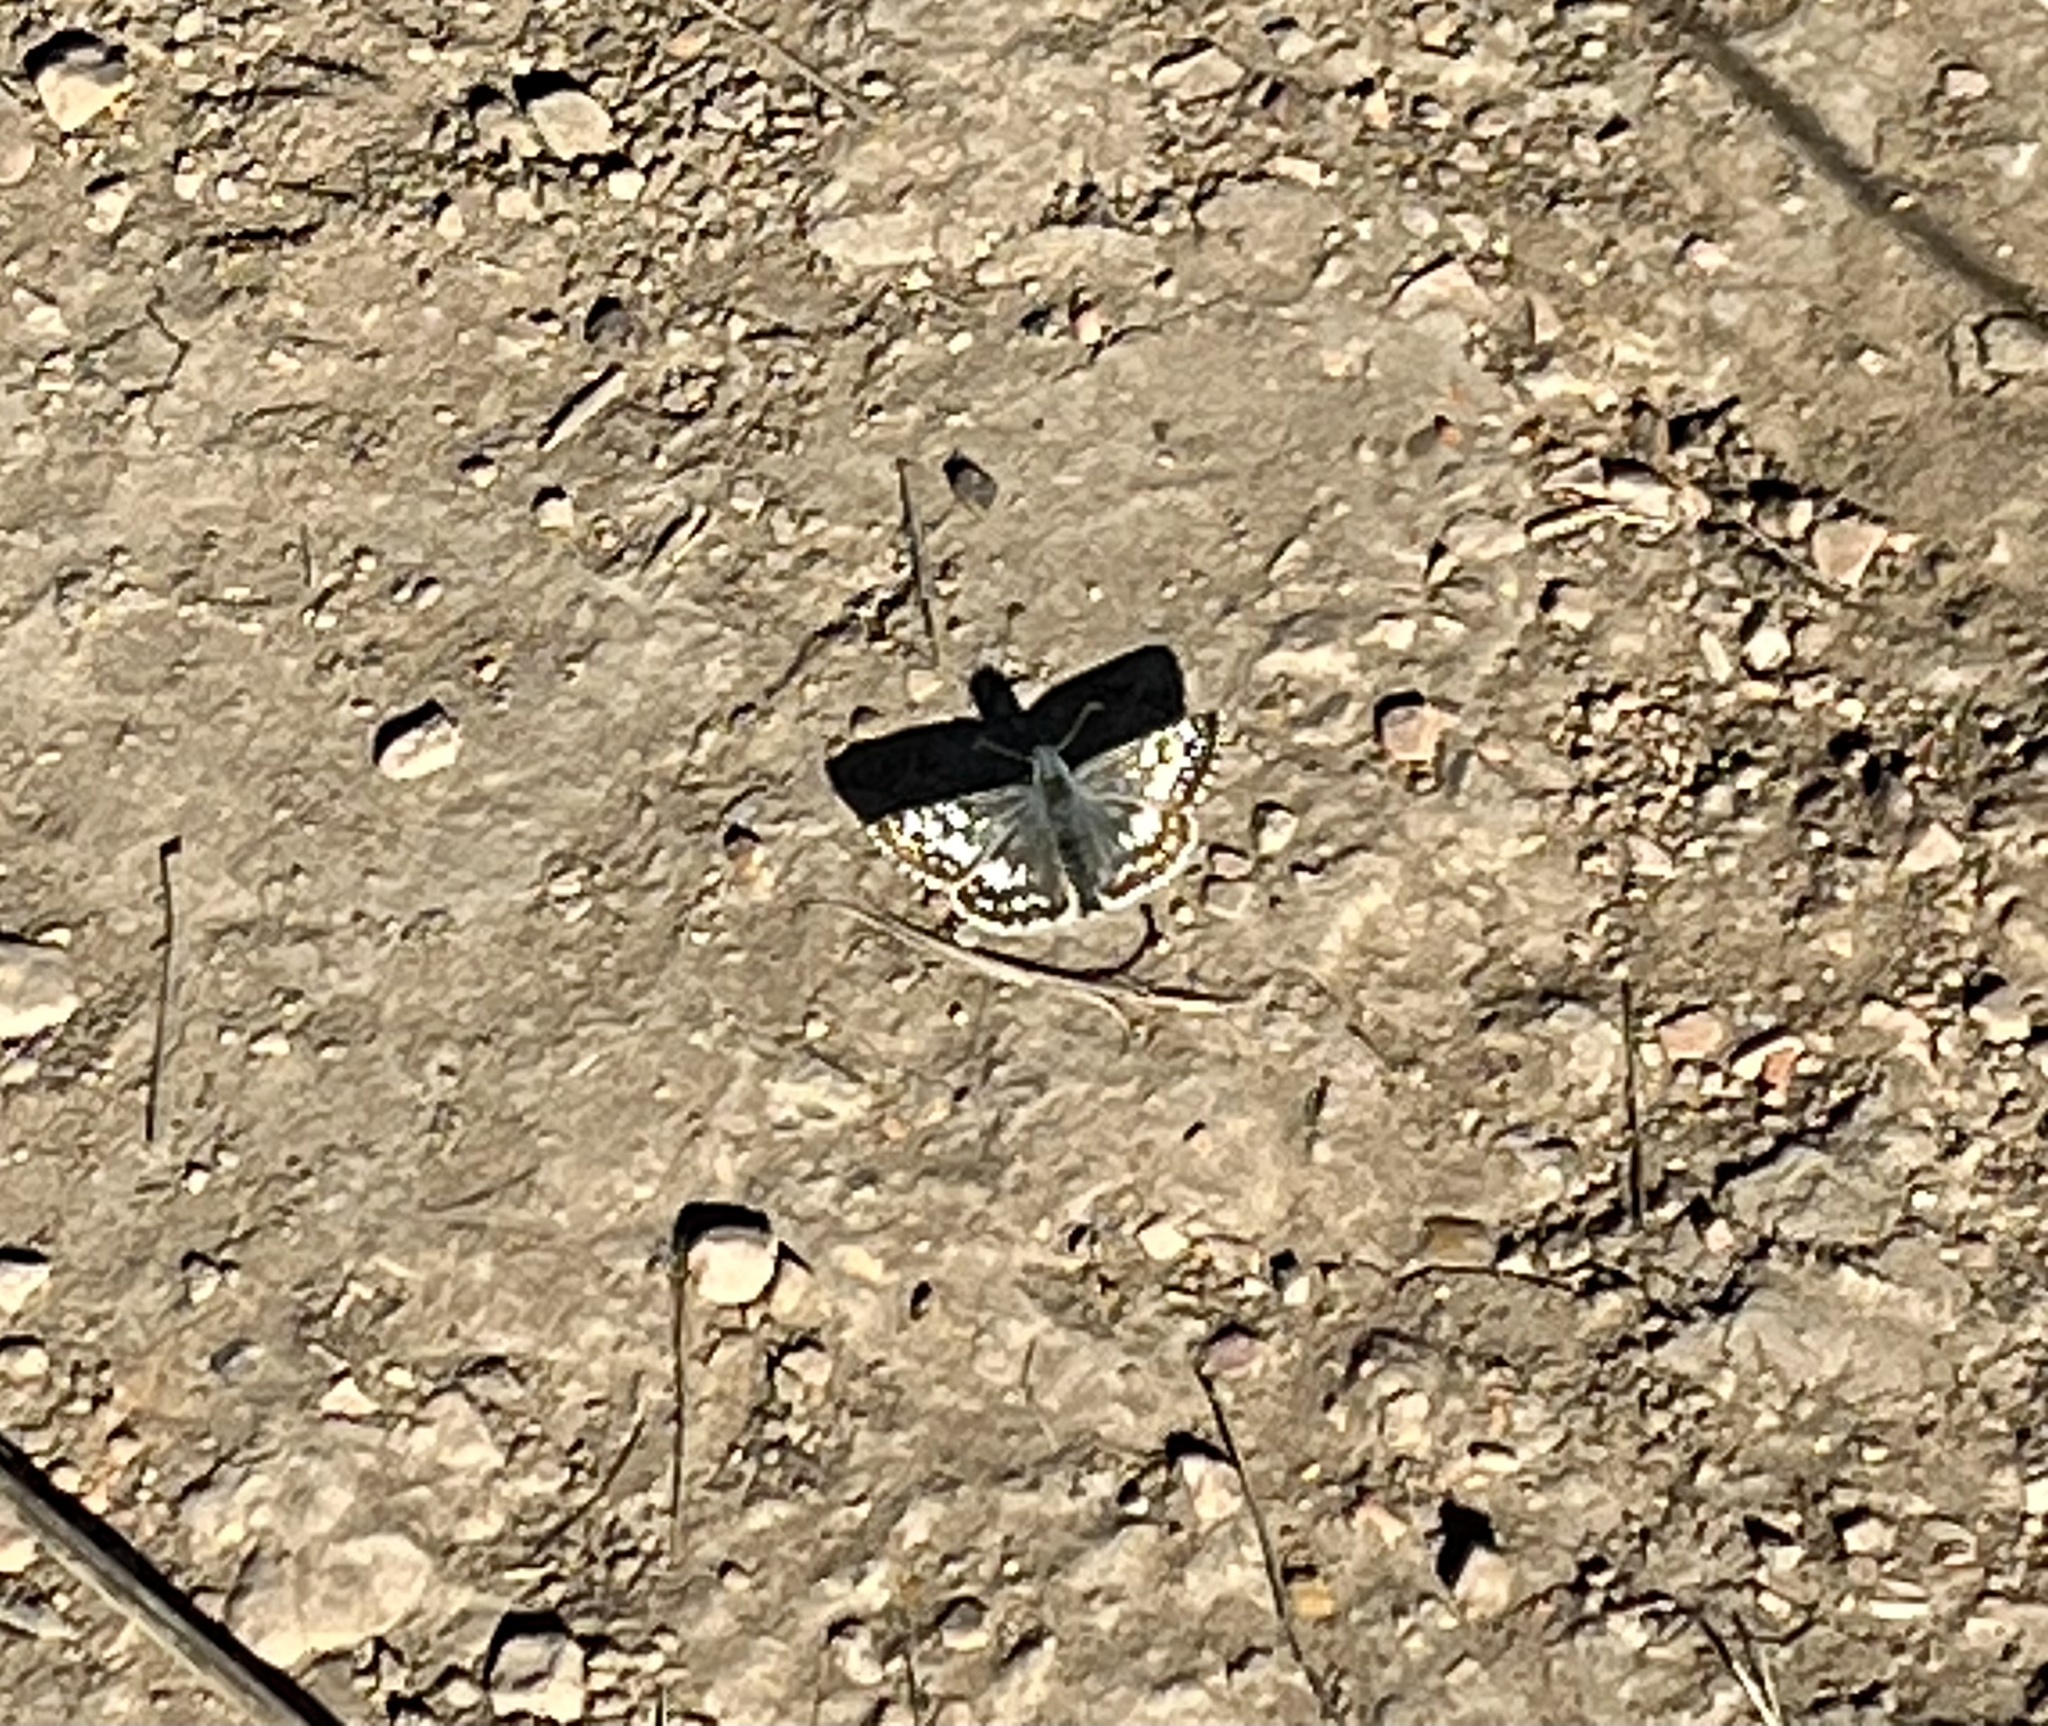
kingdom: Animalia
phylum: Arthropoda
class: Insecta
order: Lepidoptera
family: Hesperiidae
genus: Burnsius
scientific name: Burnsius communis
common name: Common checkered-skipper
